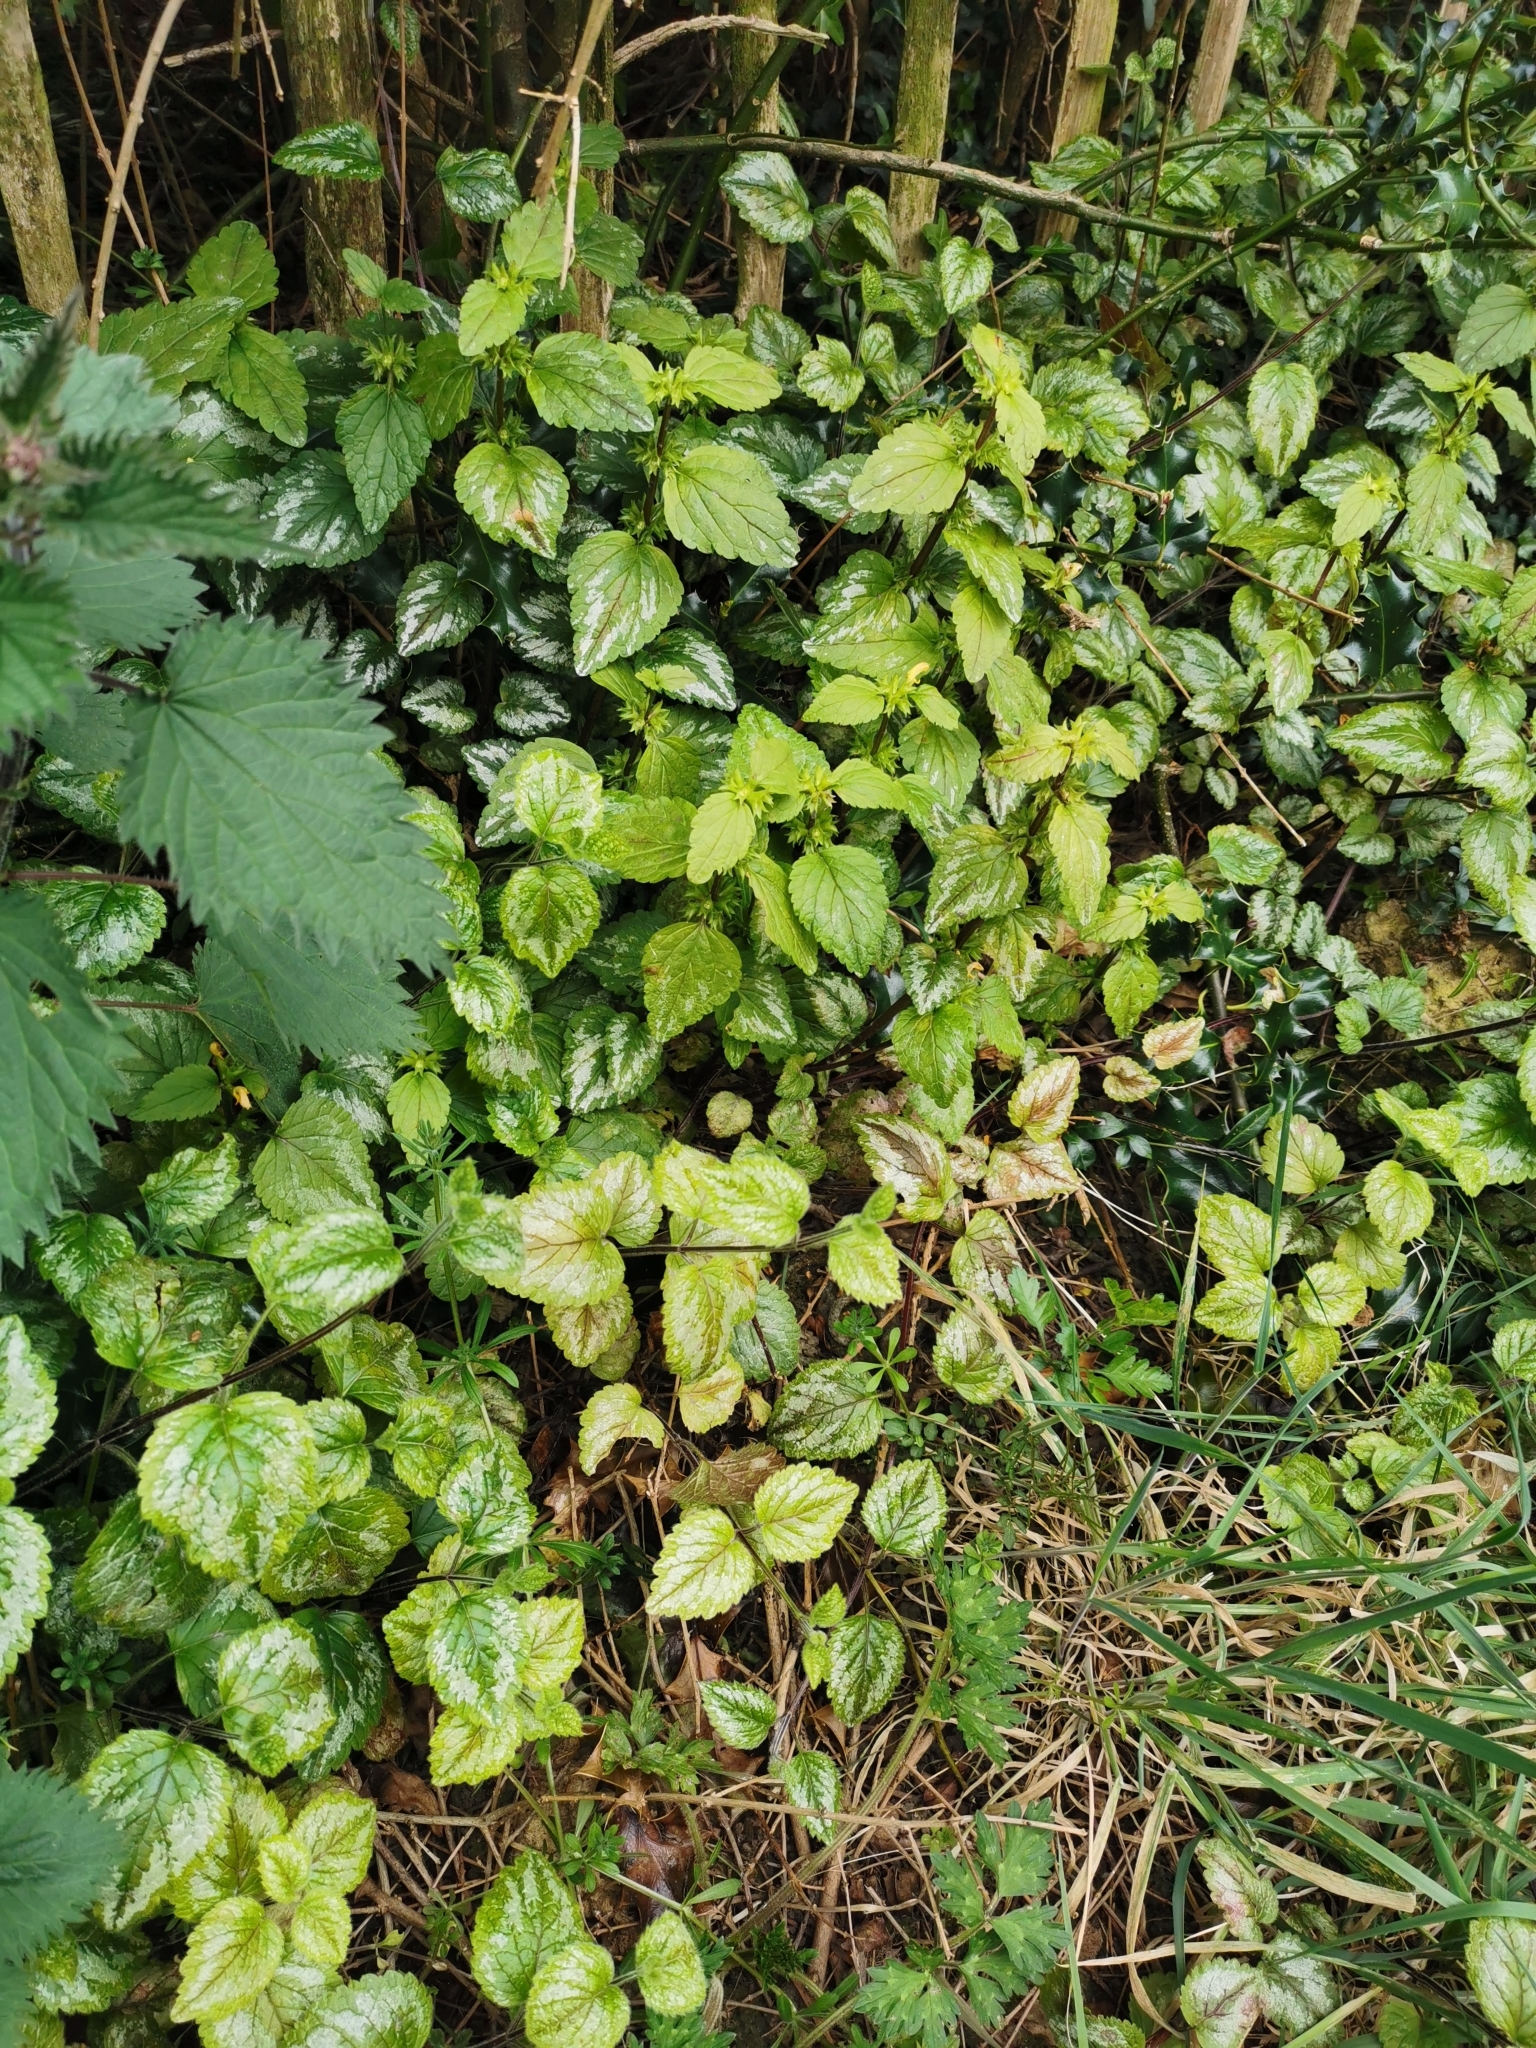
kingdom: Plantae
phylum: Tracheophyta
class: Magnoliopsida
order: Lamiales
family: Lamiaceae
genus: Lamium
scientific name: Lamium galeobdolon
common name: Yellow archangel
